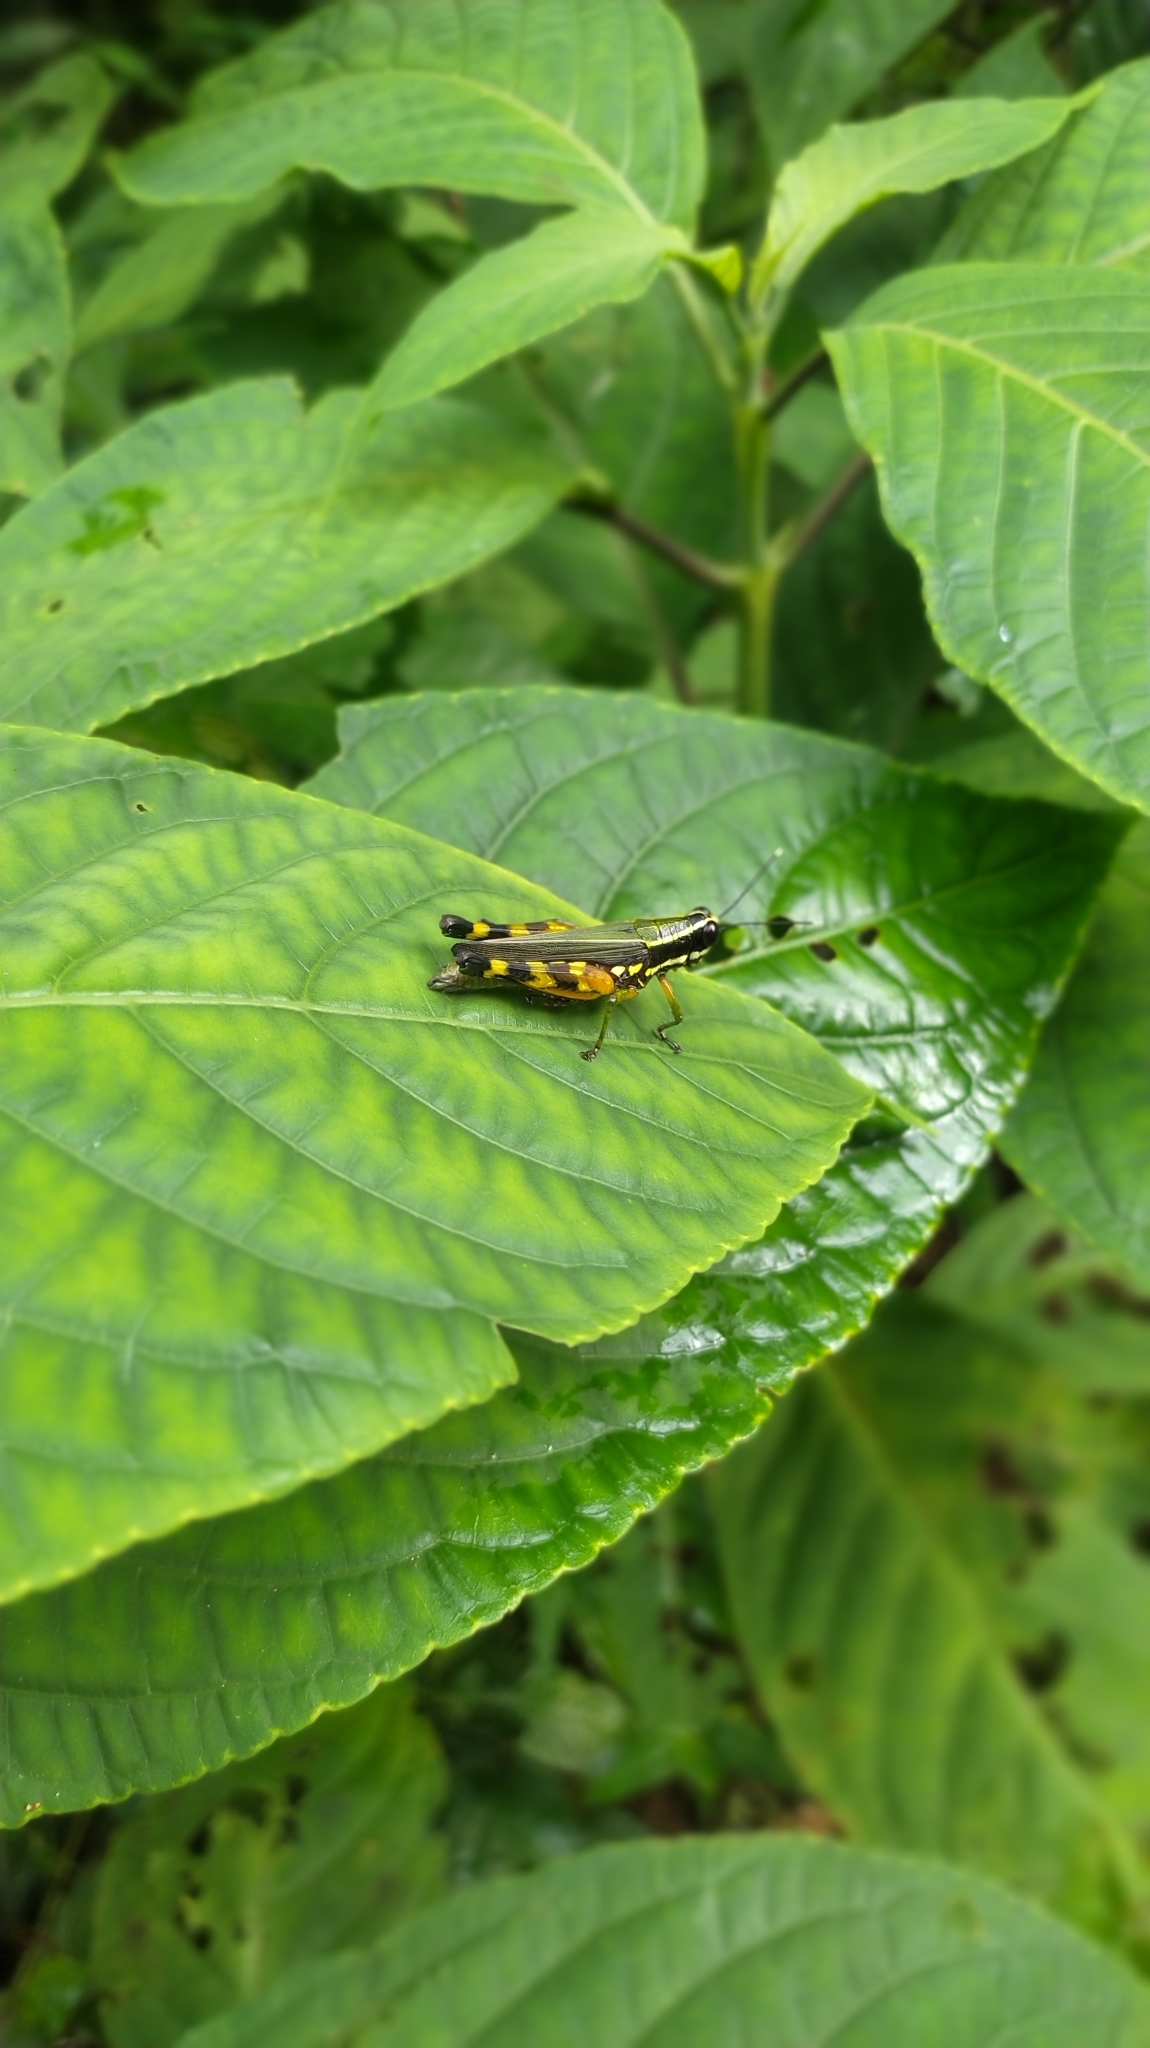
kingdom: Animalia
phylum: Arthropoda
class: Insecta
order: Orthoptera
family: Acrididae
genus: Tetrataenia
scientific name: Tetrataenia surinama
